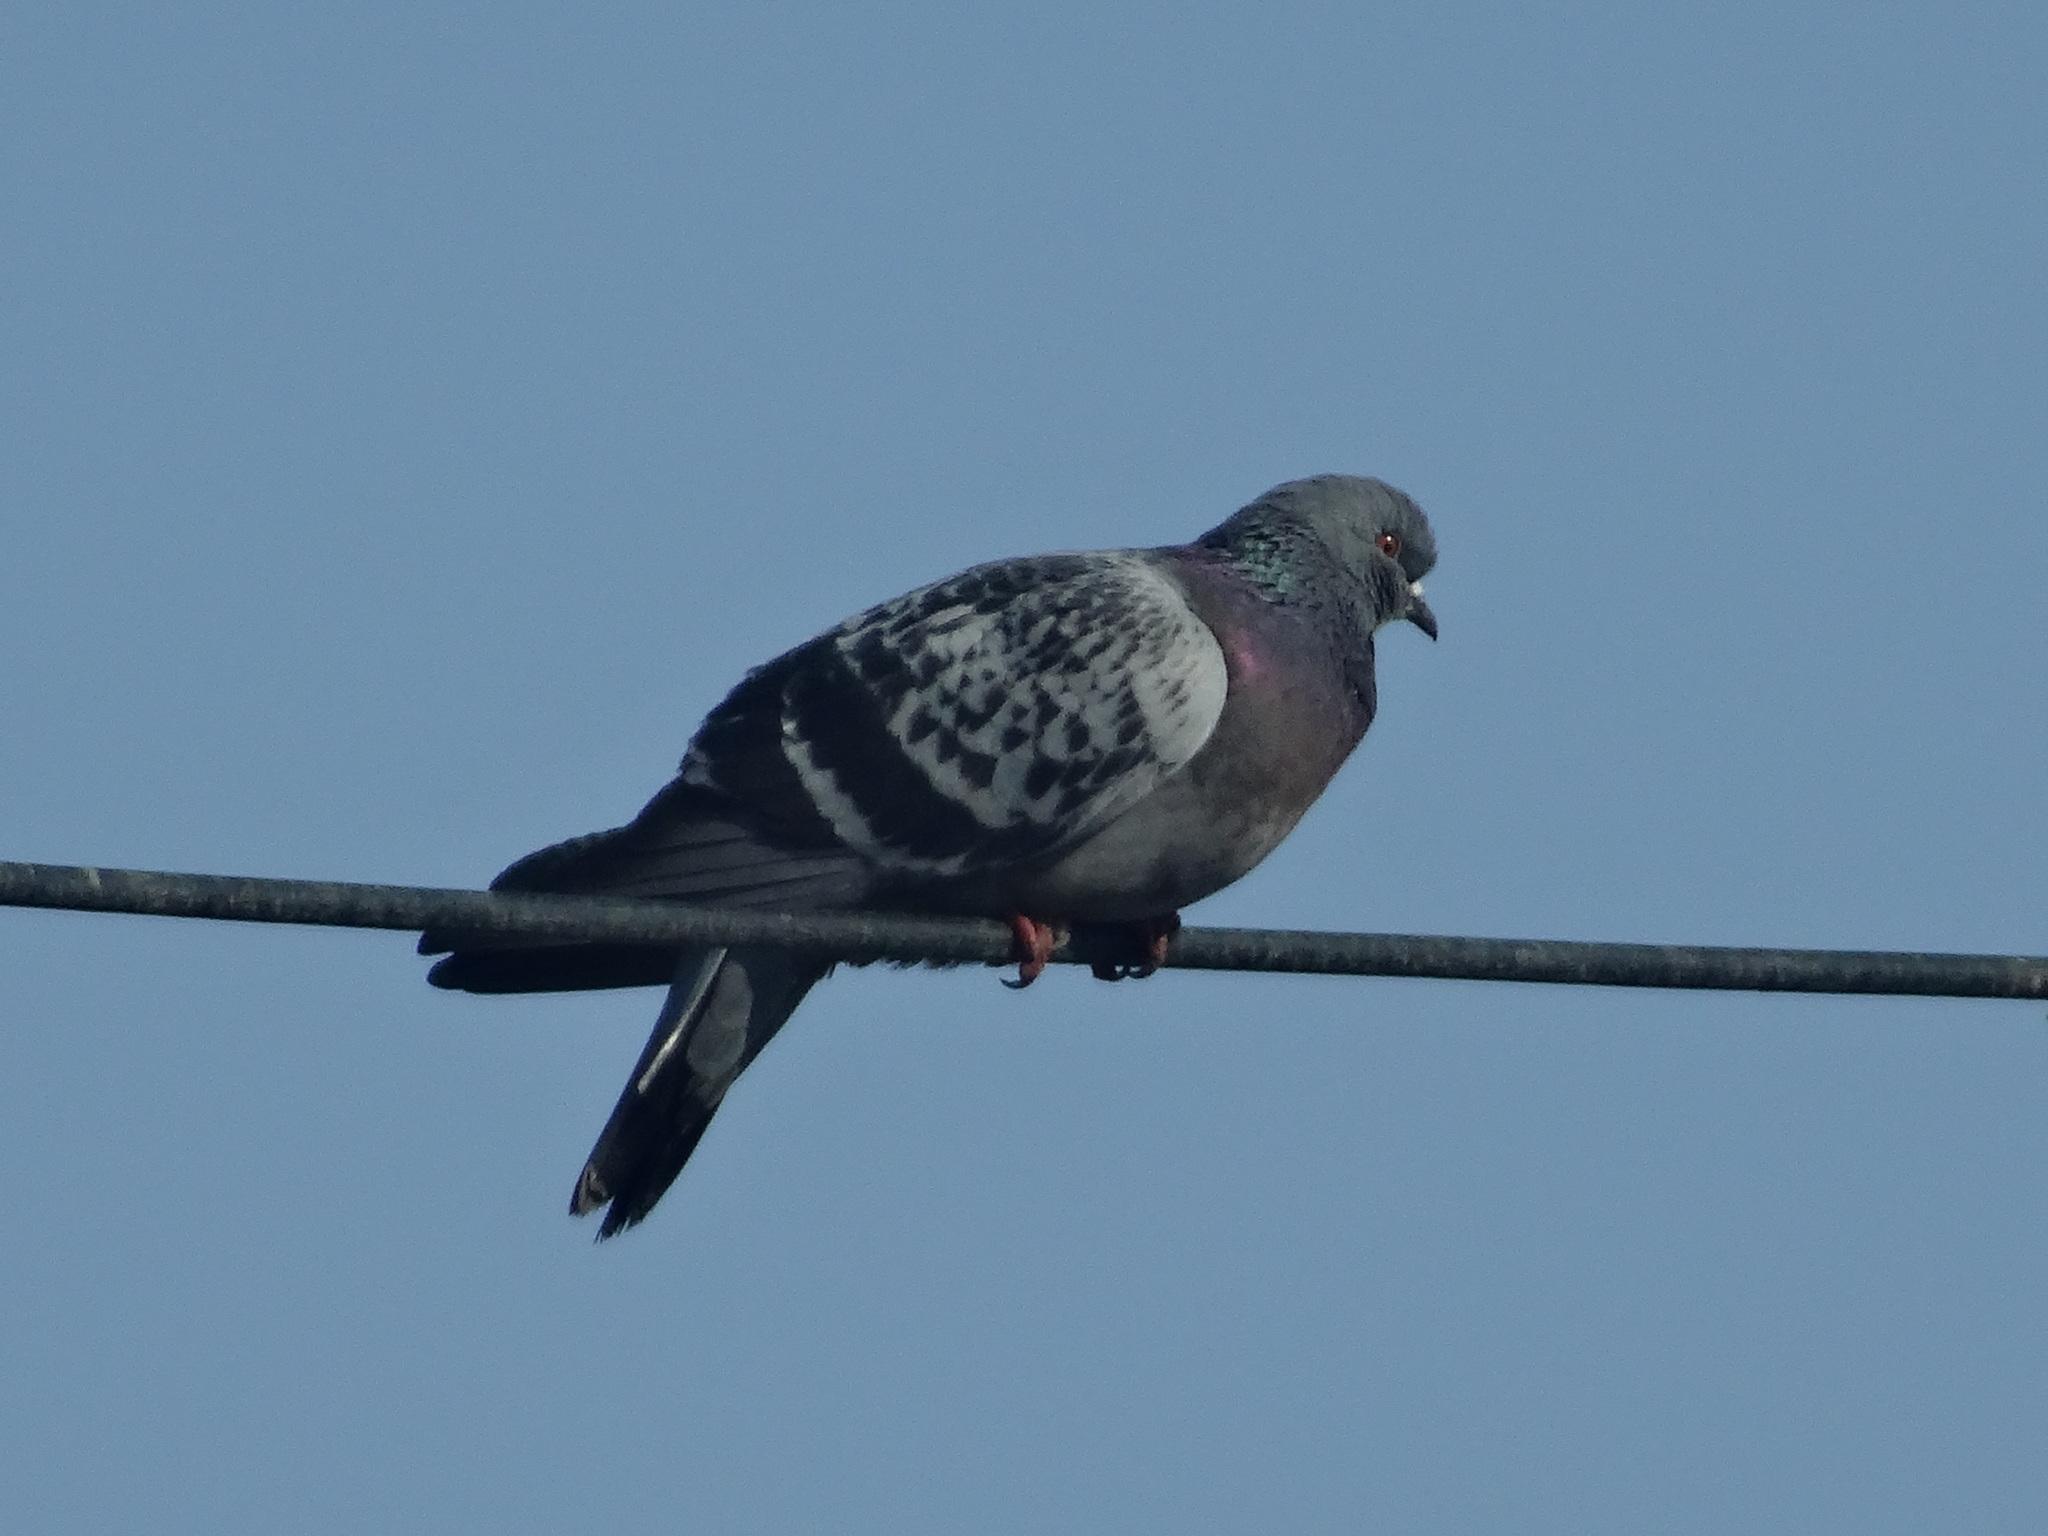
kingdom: Animalia
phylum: Chordata
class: Aves
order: Columbiformes
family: Columbidae
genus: Columba
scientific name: Columba livia
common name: Rock pigeon
